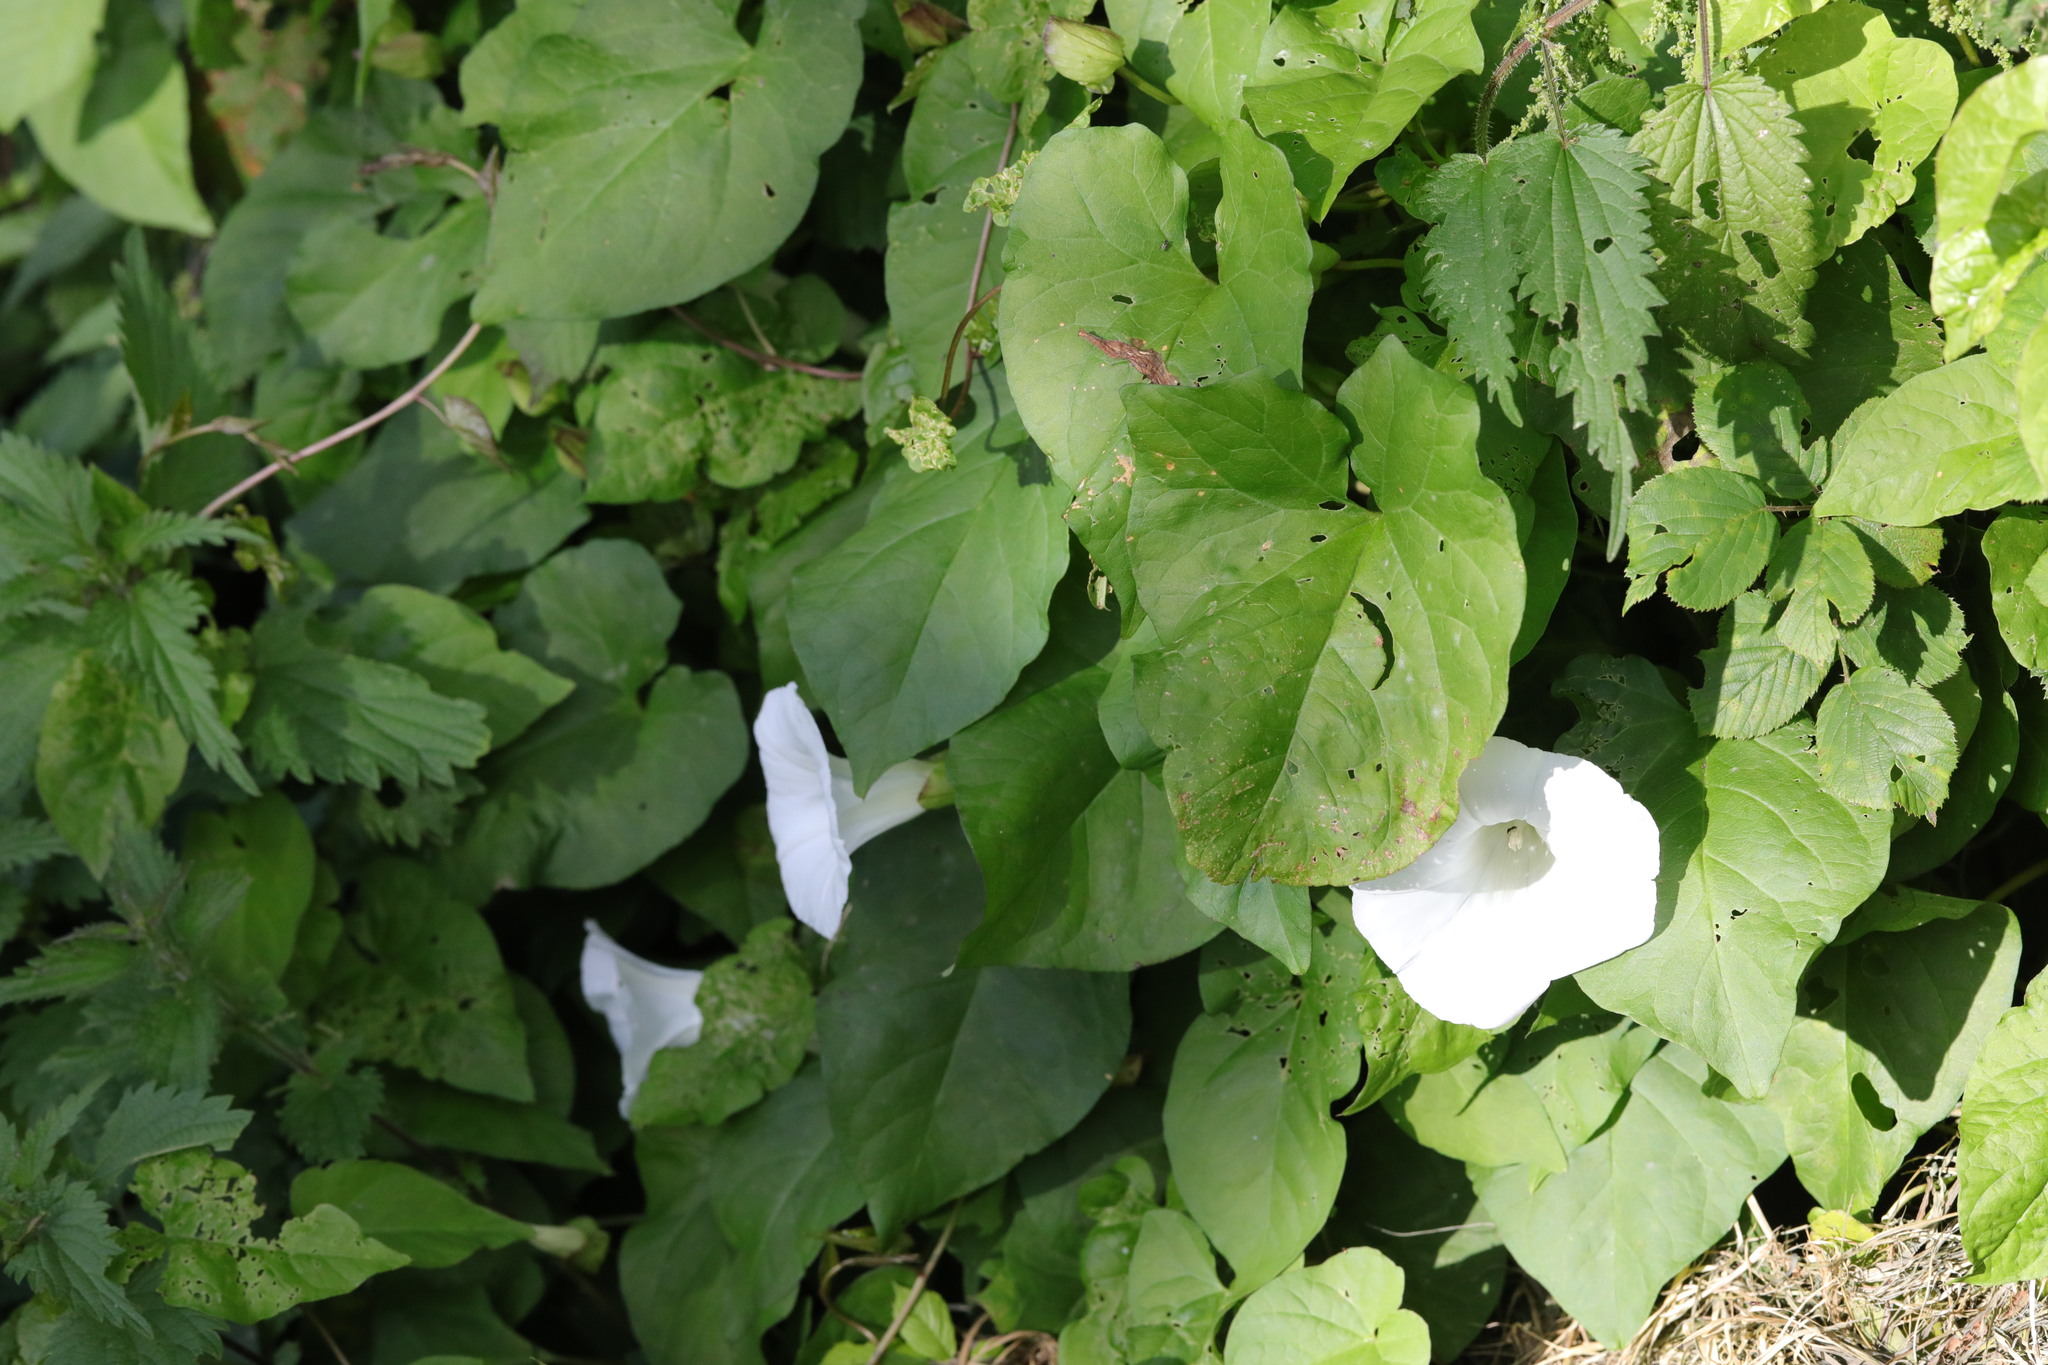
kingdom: Plantae
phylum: Tracheophyta
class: Magnoliopsida
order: Solanales
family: Convolvulaceae
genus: Calystegia
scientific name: Calystegia silvatica
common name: Large bindweed
